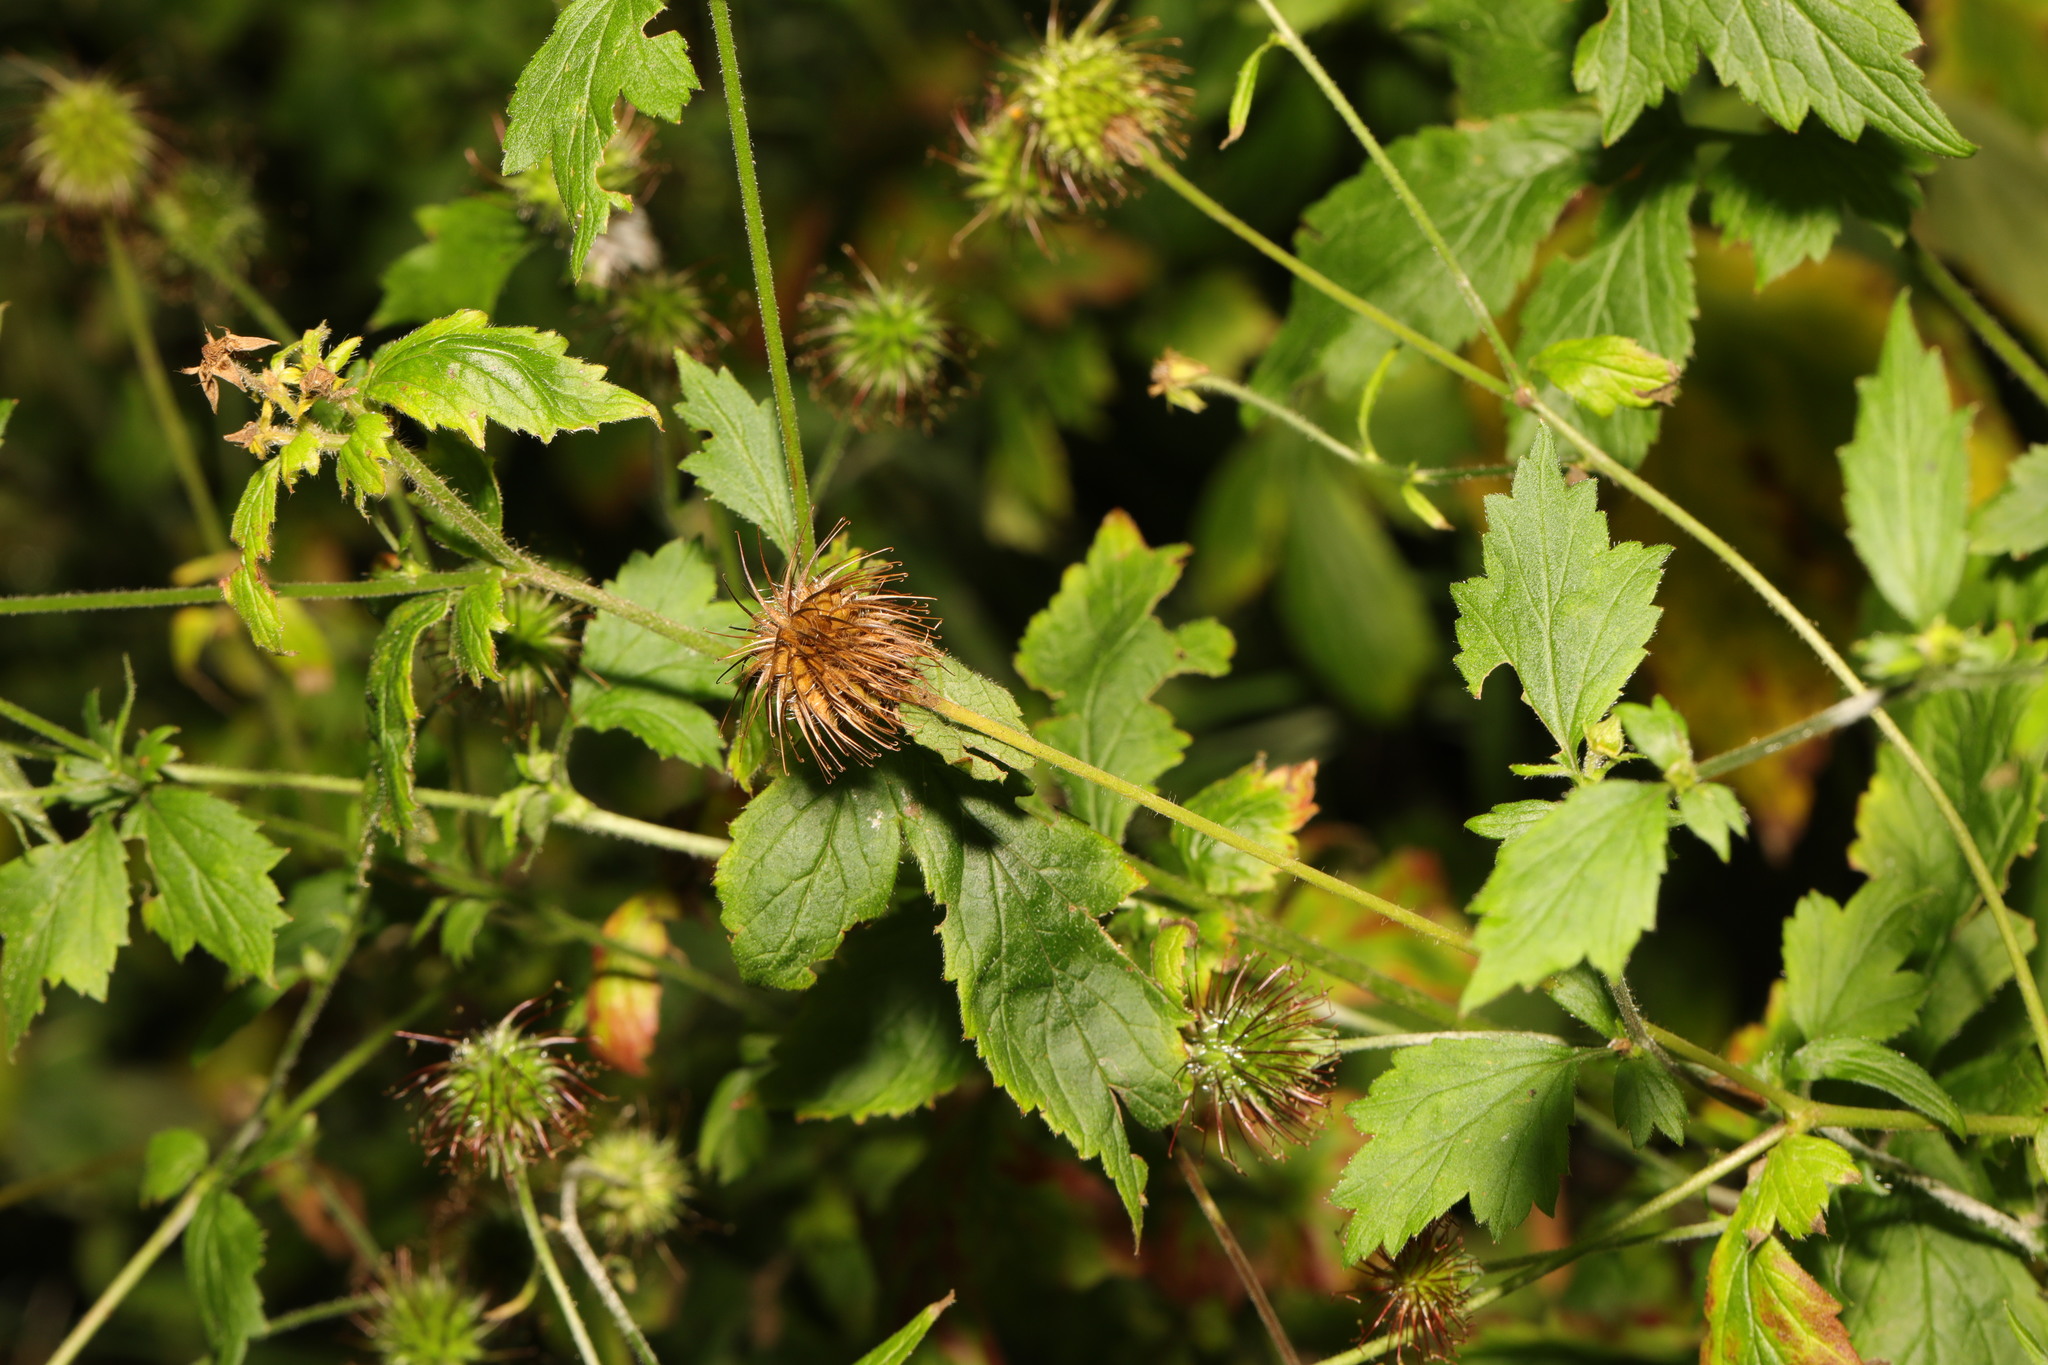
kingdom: Plantae
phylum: Tracheophyta
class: Magnoliopsida
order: Rosales
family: Rosaceae
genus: Geum
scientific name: Geum urbanum
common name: Wood avens
